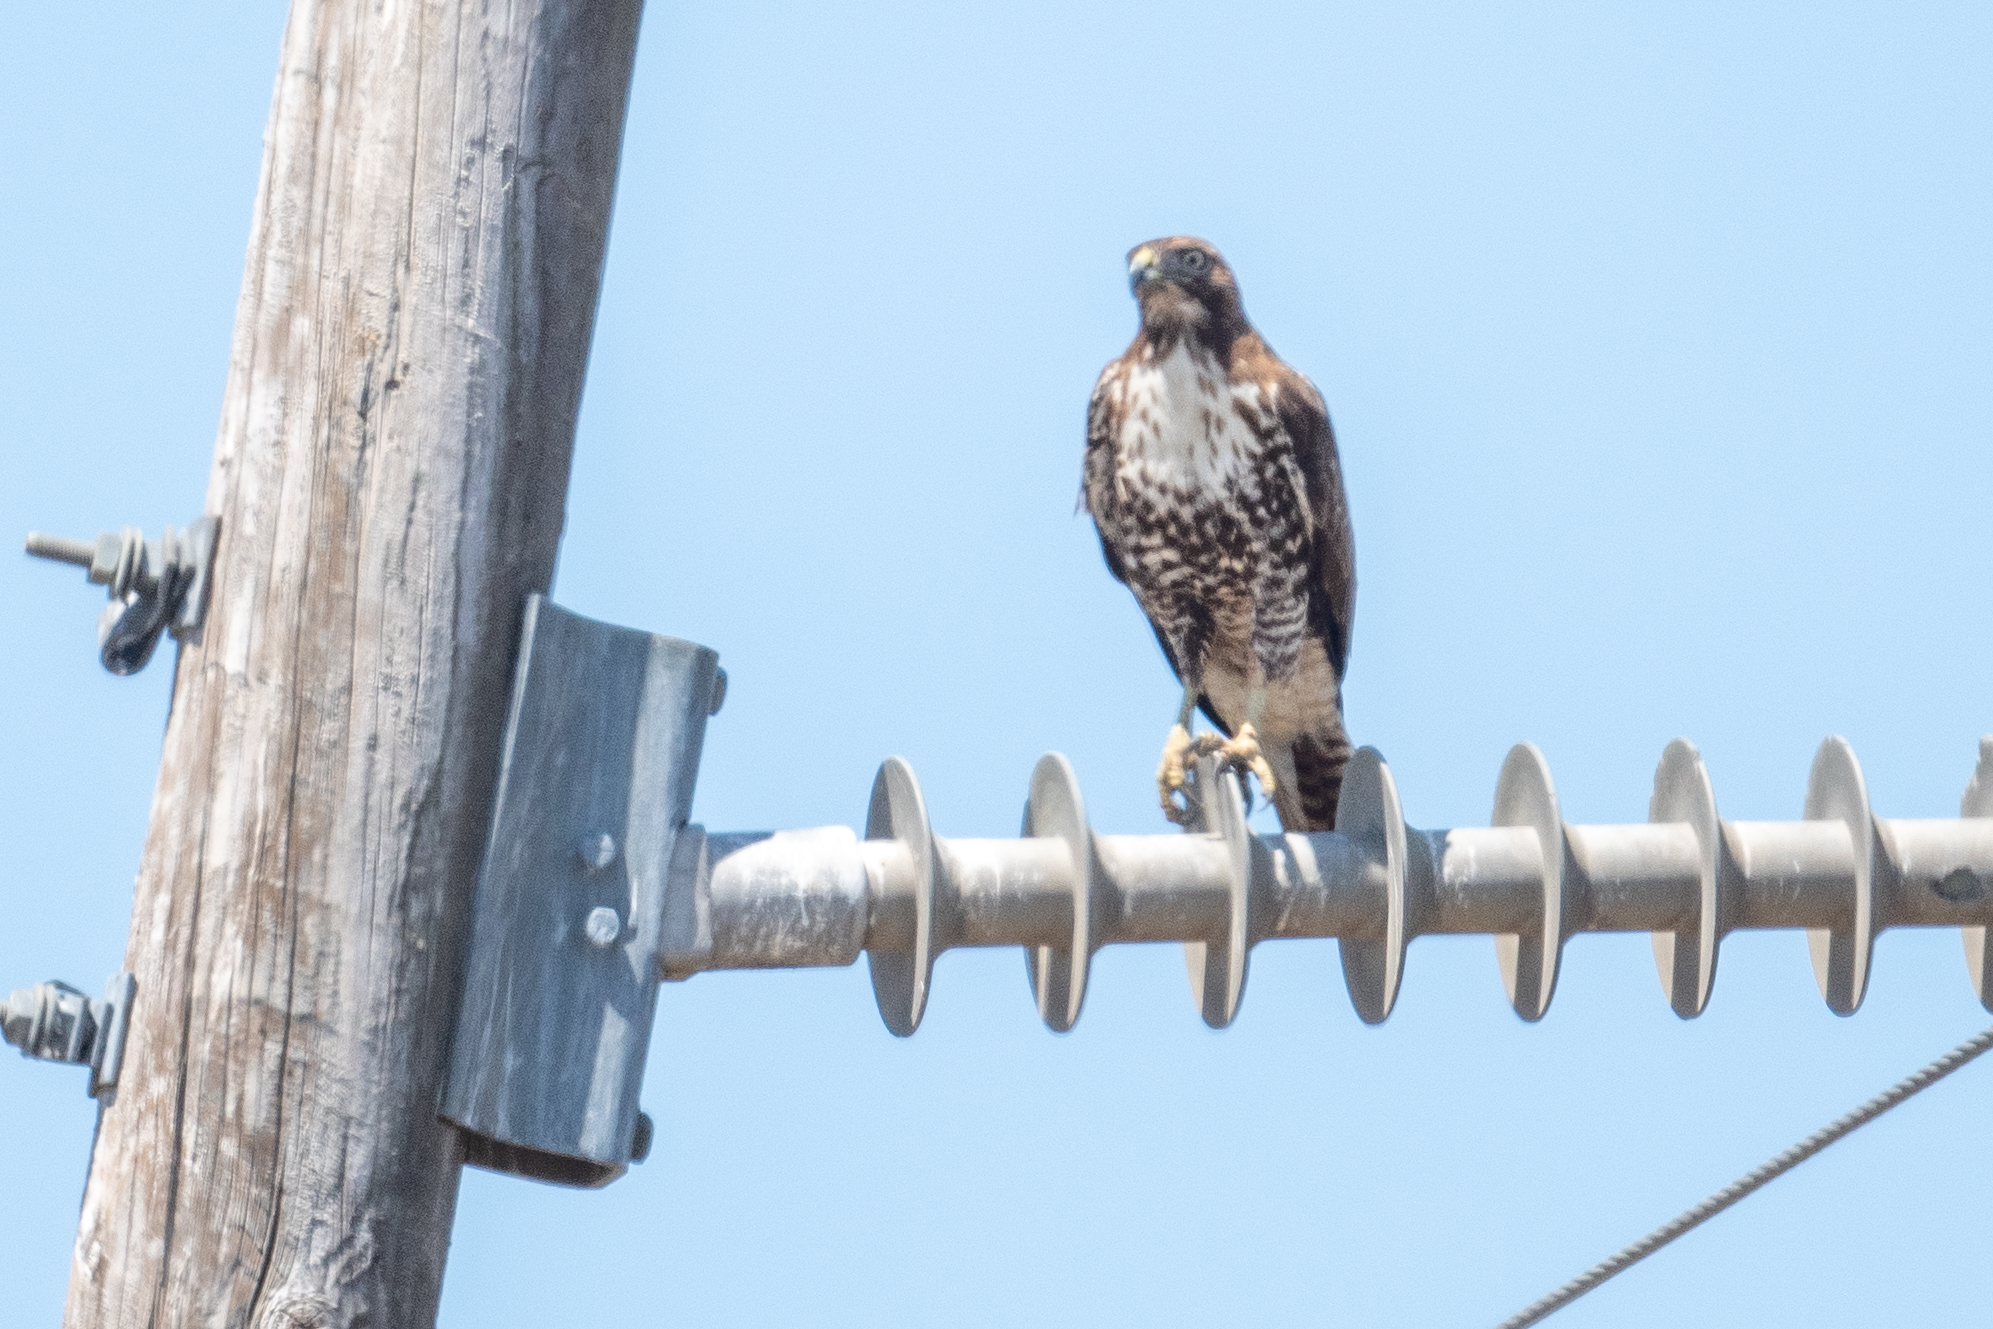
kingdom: Animalia
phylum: Chordata
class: Aves
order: Accipitriformes
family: Accipitridae
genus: Buteo
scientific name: Buteo jamaicensis
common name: Red-tailed hawk
